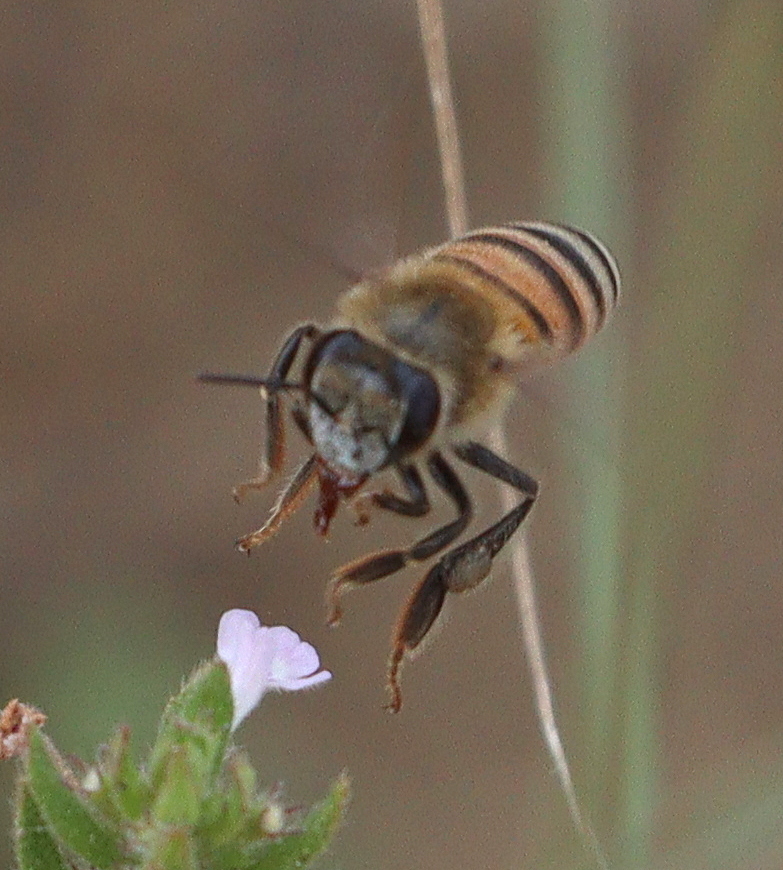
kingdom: Animalia
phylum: Arthropoda
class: Insecta
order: Hymenoptera
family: Apidae
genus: Apis
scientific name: Apis mellifera
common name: Honey bee
